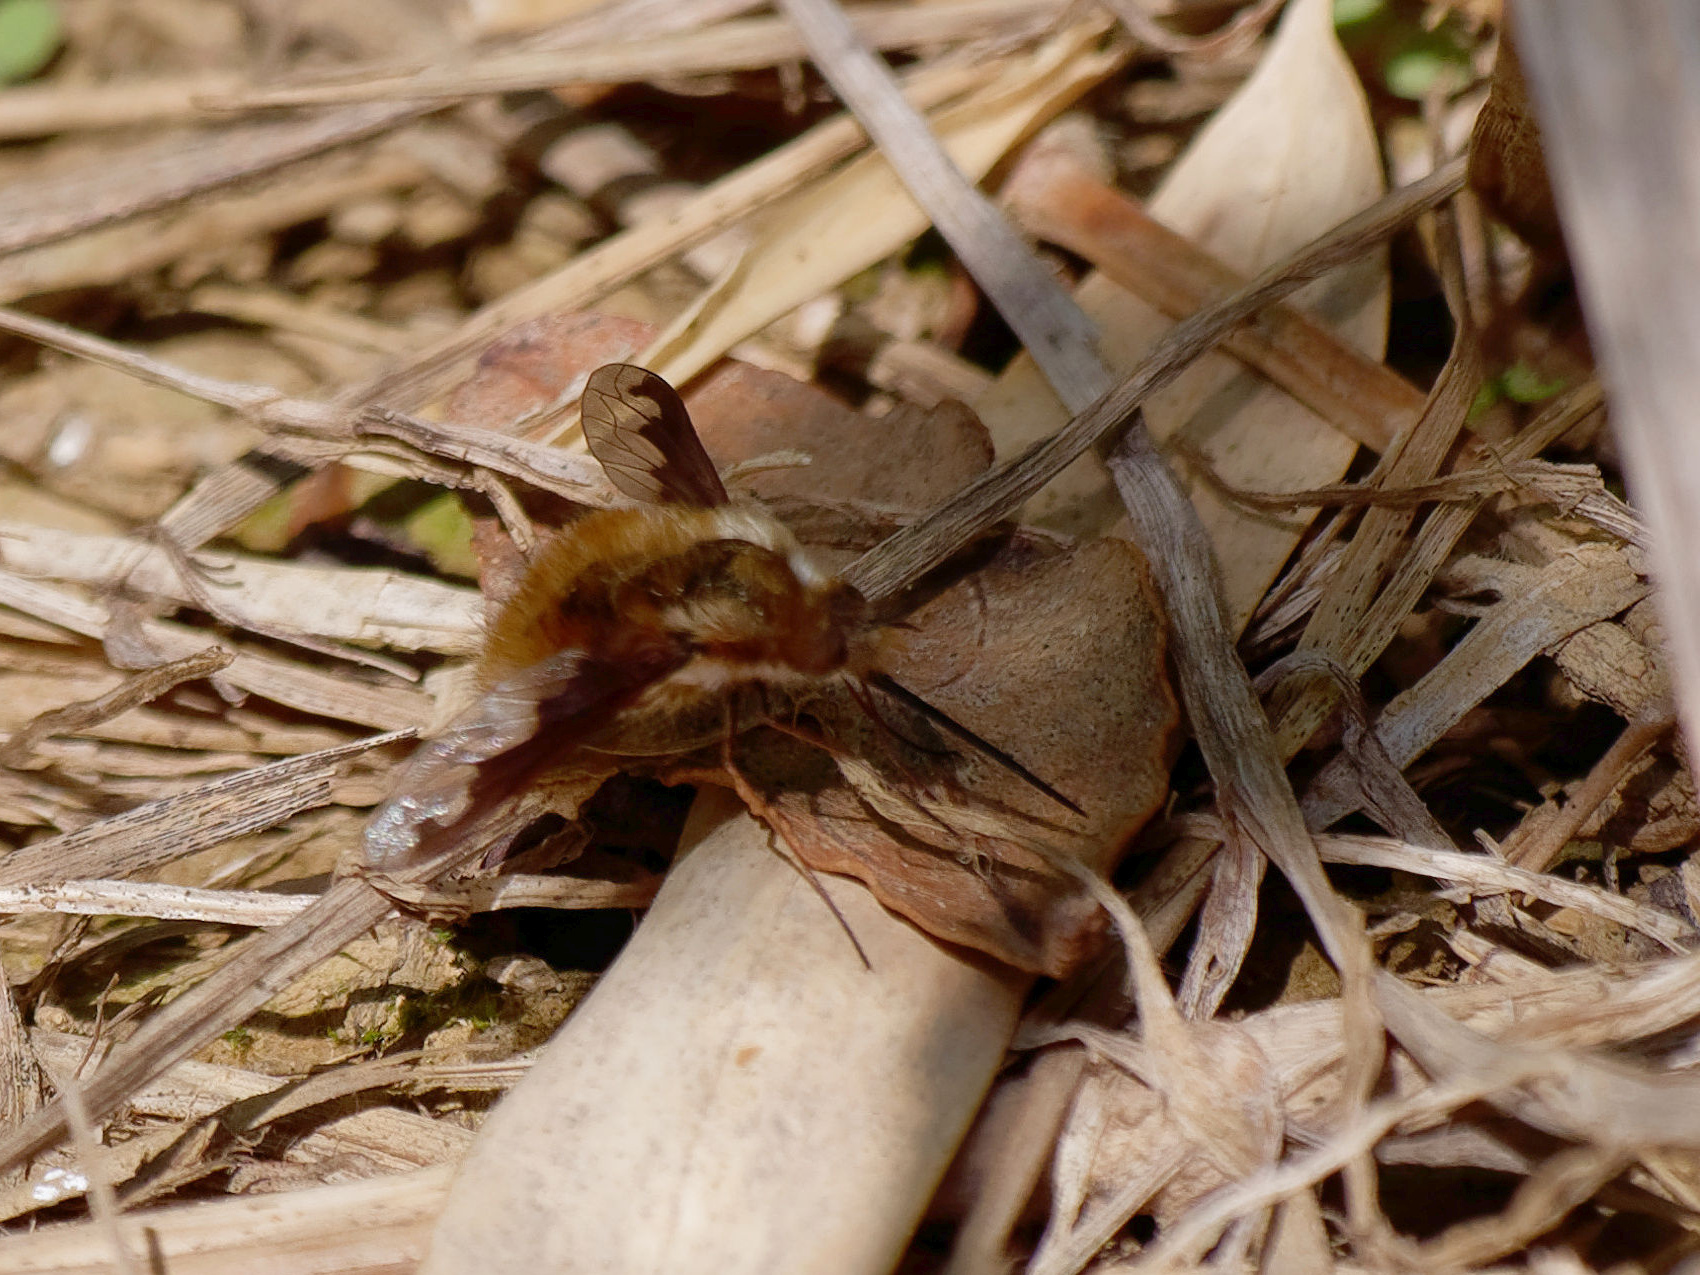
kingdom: Animalia
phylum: Arthropoda
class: Insecta
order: Diptera
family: Bombyliidae
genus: Bombylius
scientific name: Bombylius major
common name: Bee fly
